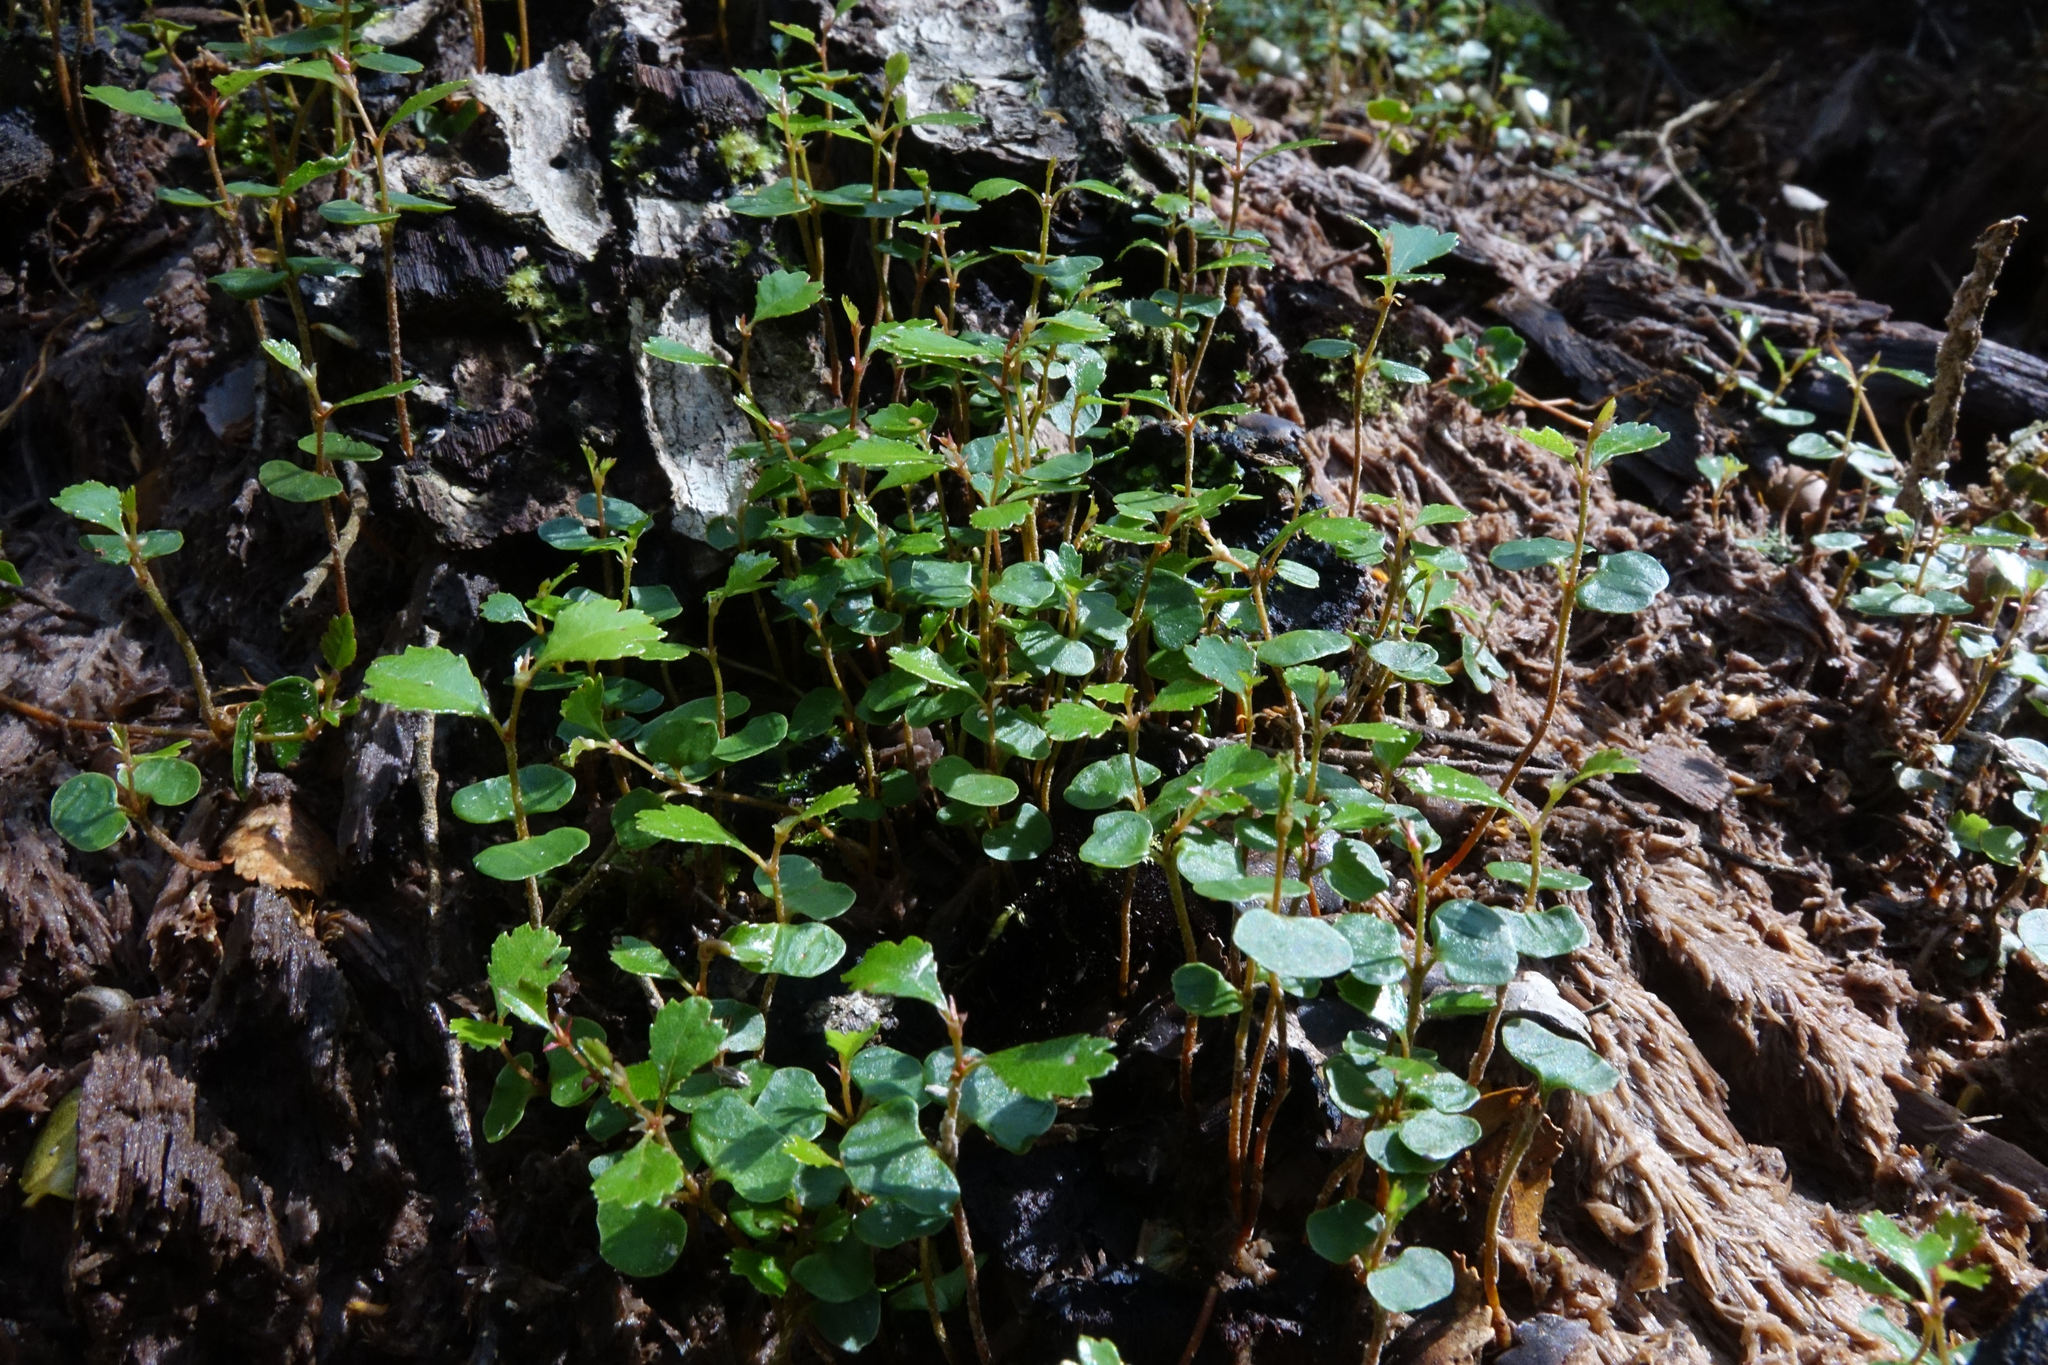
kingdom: Plantae
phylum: Tracheophyta
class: Magnoliopsida
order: Fagales
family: Nothofagaceae
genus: Nothofagus
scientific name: Nothofagus menziesii
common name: Silver beech
